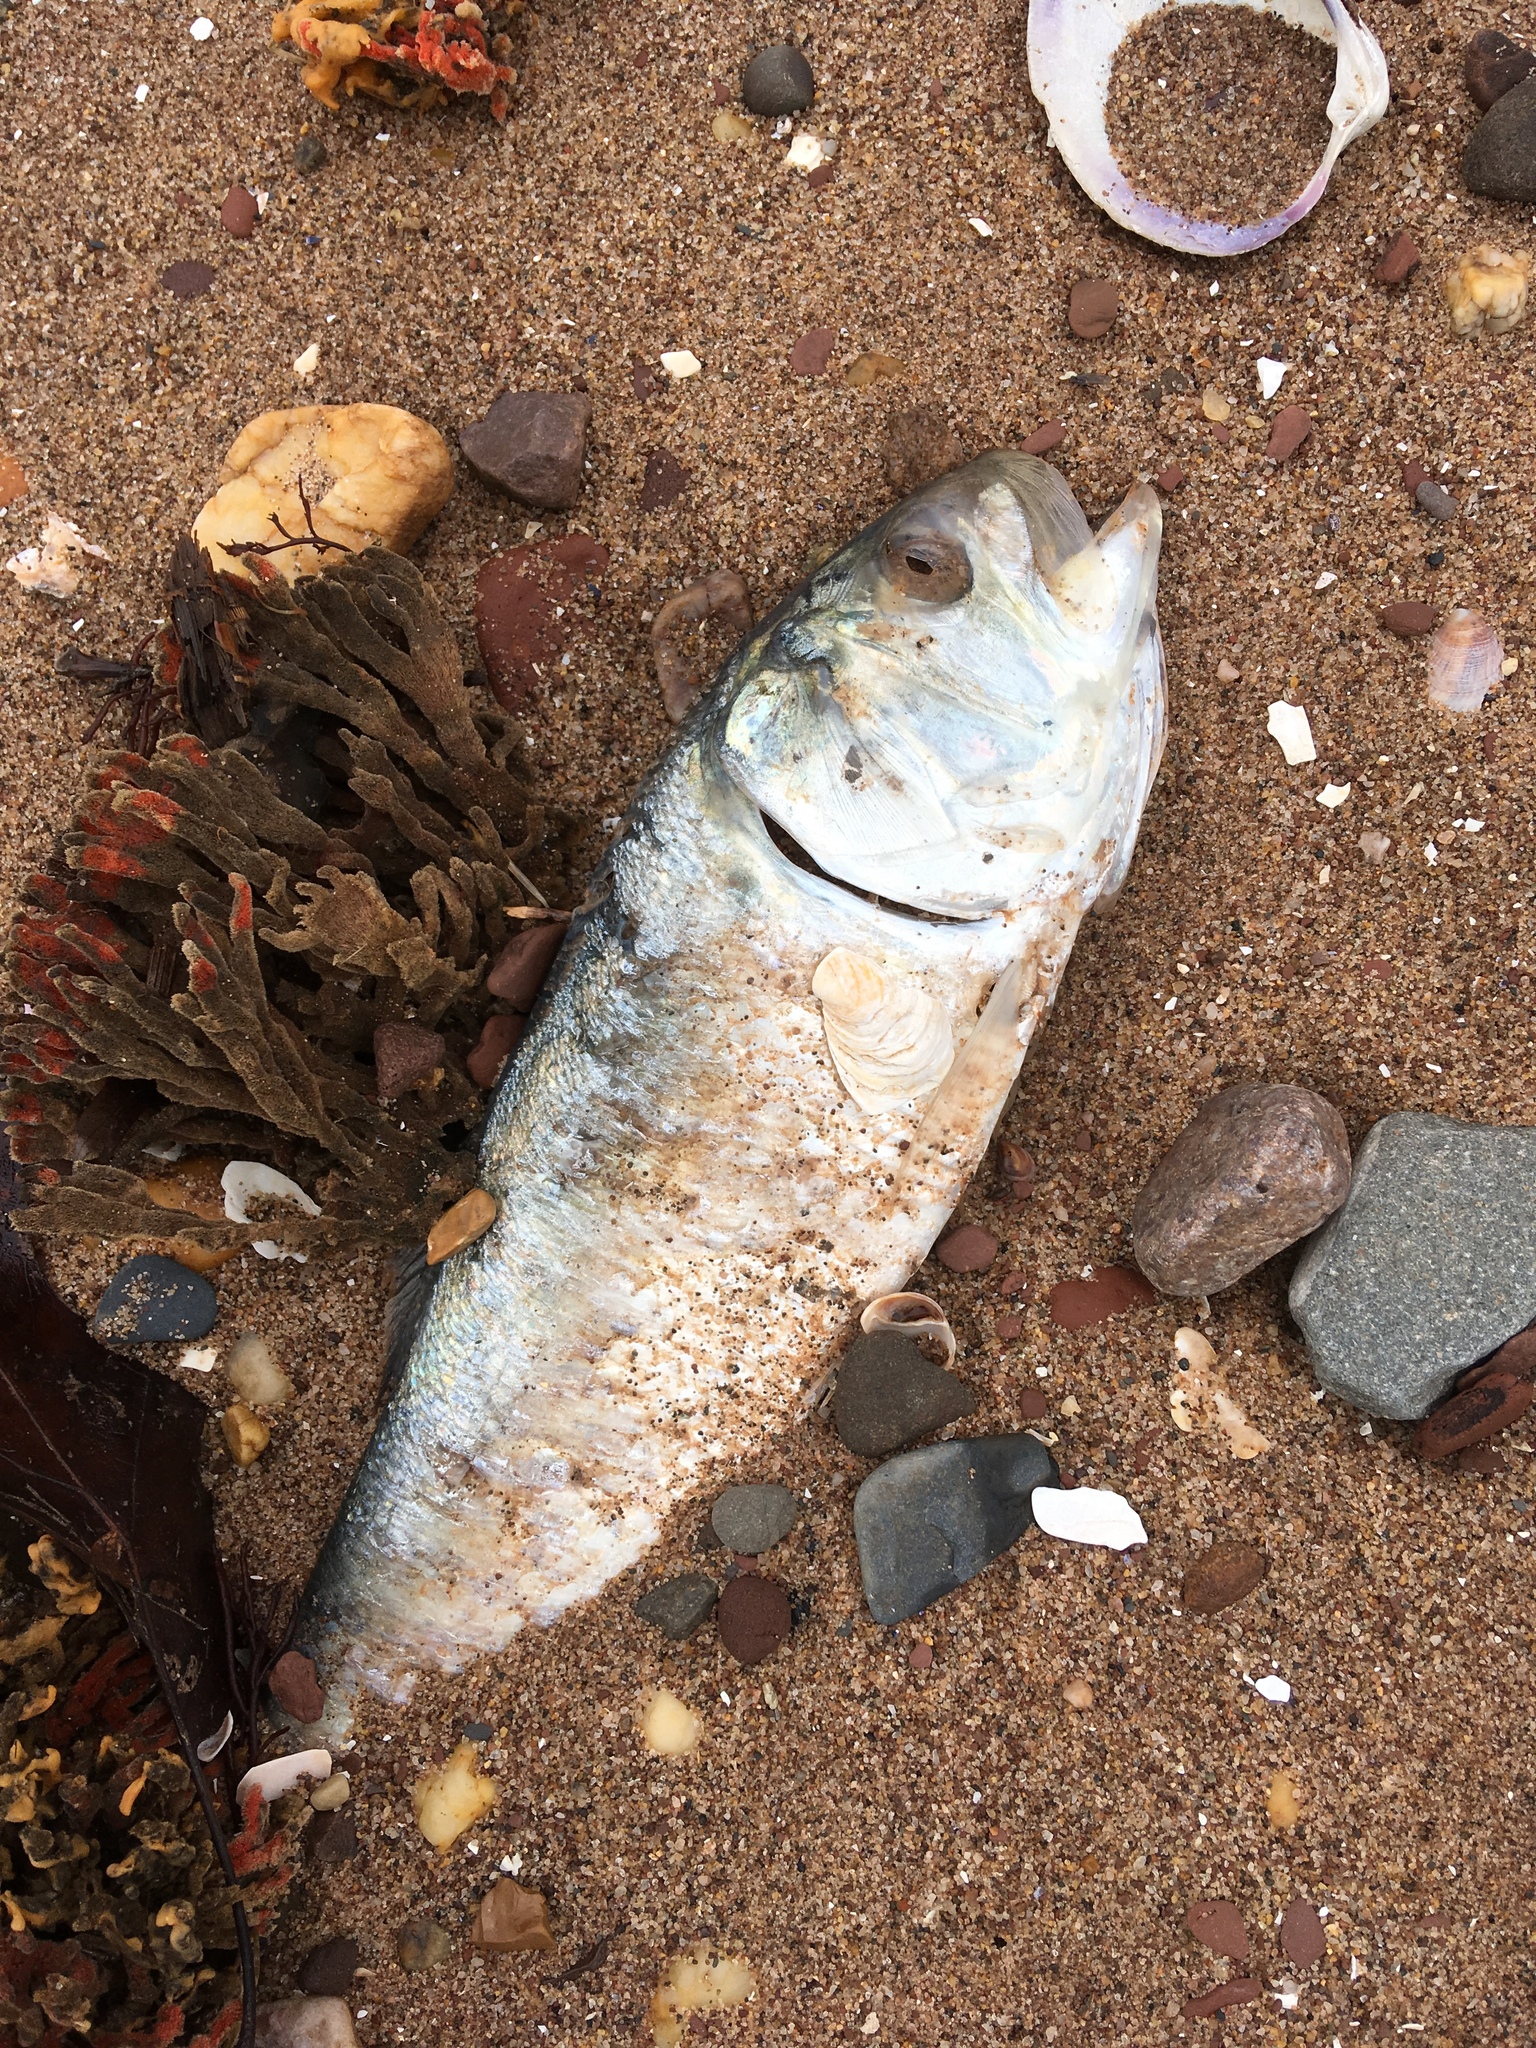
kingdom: Animalia
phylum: Chordata
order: Clupeiformes
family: Clupeidae
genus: Brevoortia
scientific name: Brevoortia tyrannus
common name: Atlantic menhaden
